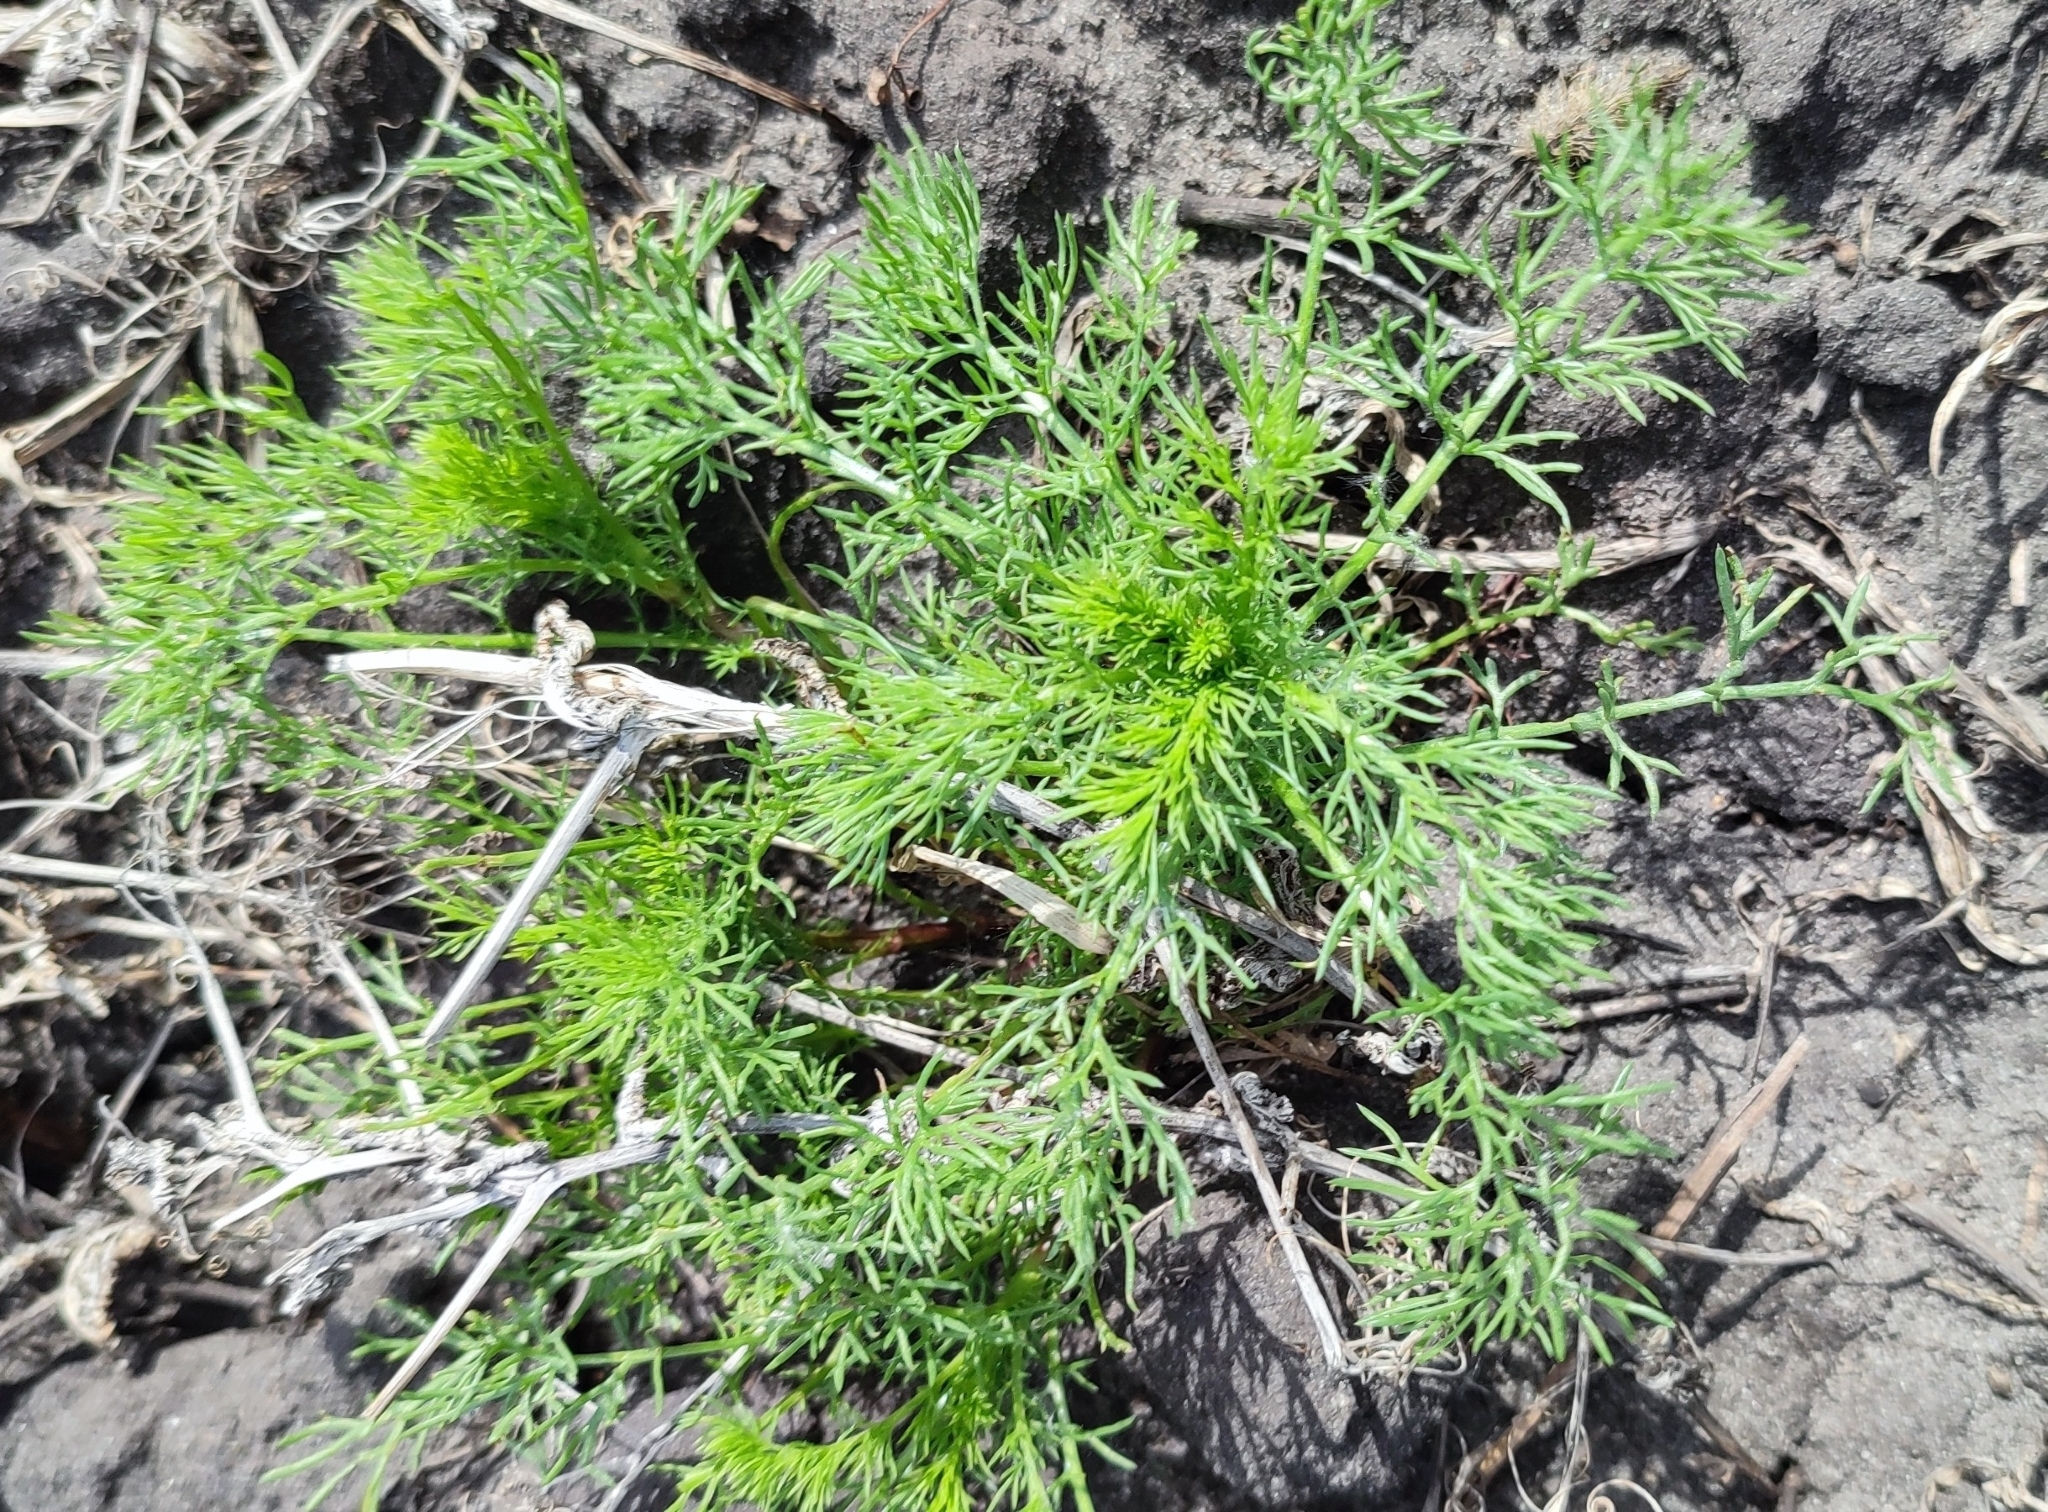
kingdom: Plantae
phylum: Tracheophyta
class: Magnoliopsida
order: Asterales
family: Asteraceae
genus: Tripleurospermum
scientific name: Tripleurospermum inodorum
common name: Scentless mayweed
